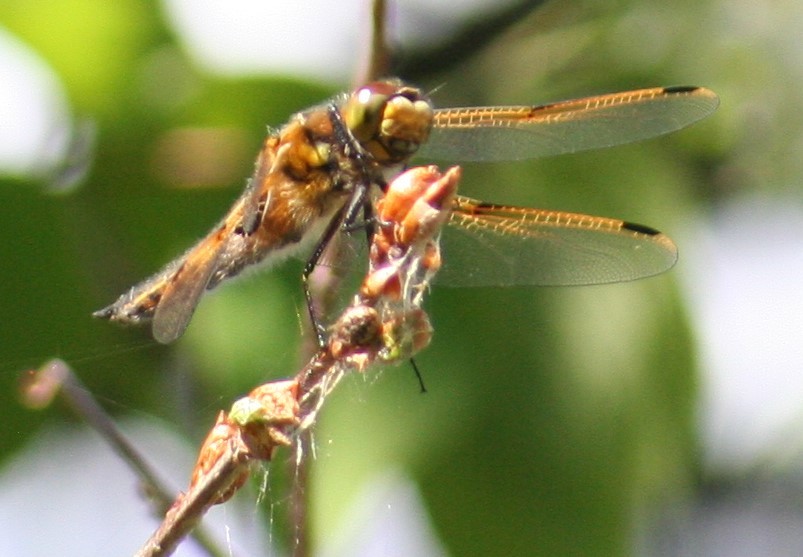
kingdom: Animalia
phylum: Arthropoda
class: Insecta
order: Odonata
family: Libellulidae
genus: Libellula
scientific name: Libellula quadrimaculata
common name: Four-spotted chaser
